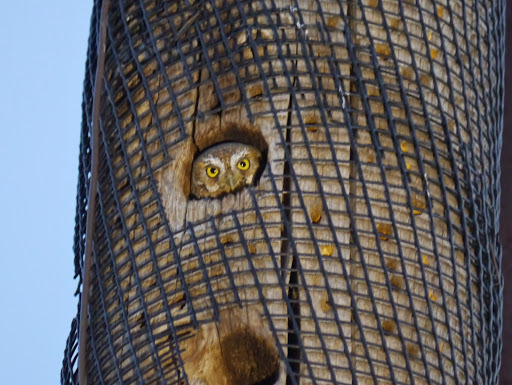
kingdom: Animalia
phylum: Chordata
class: Aves
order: Strigiformes
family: Strigidae
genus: Micrathene
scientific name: Micrathene whitneyi
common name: Elf owl
